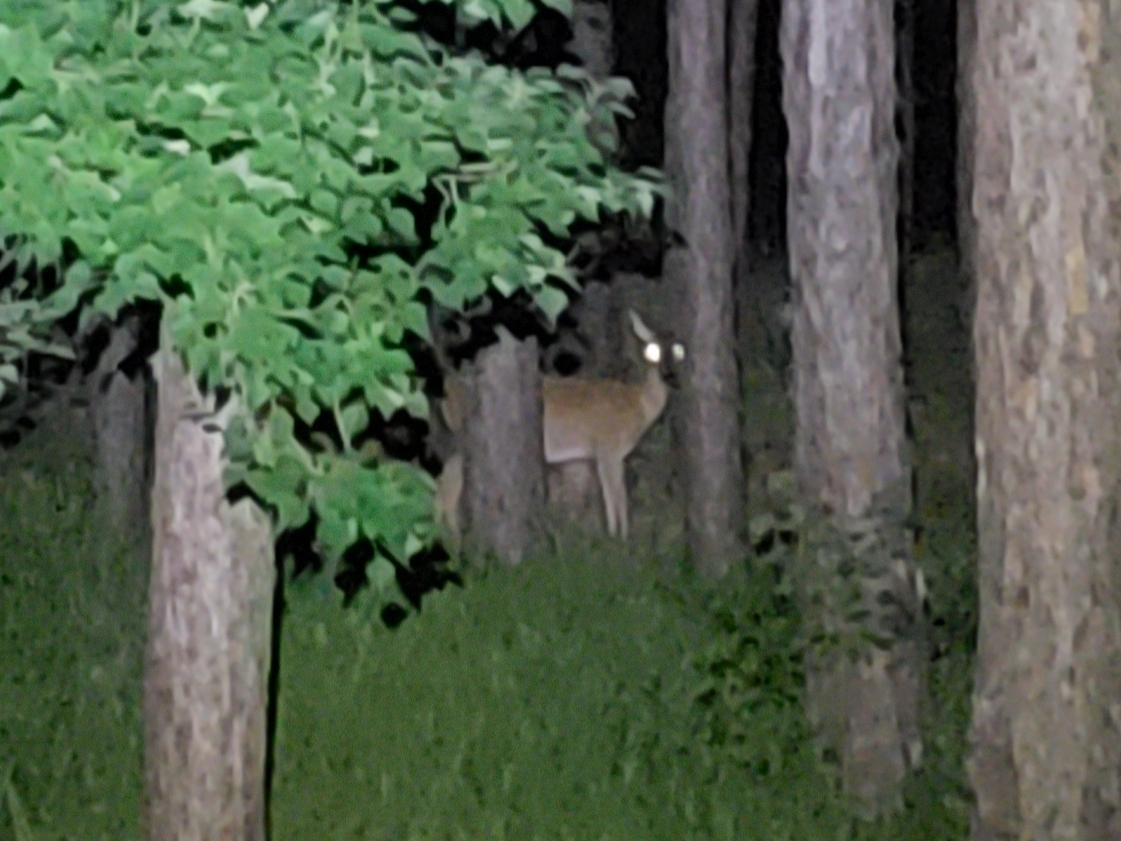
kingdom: Animalia
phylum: Chordata
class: Mammalia
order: Artiodactyla
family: Cervidae
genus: Odocoileus
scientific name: Odocoileus virginianus
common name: White-tailed deer
